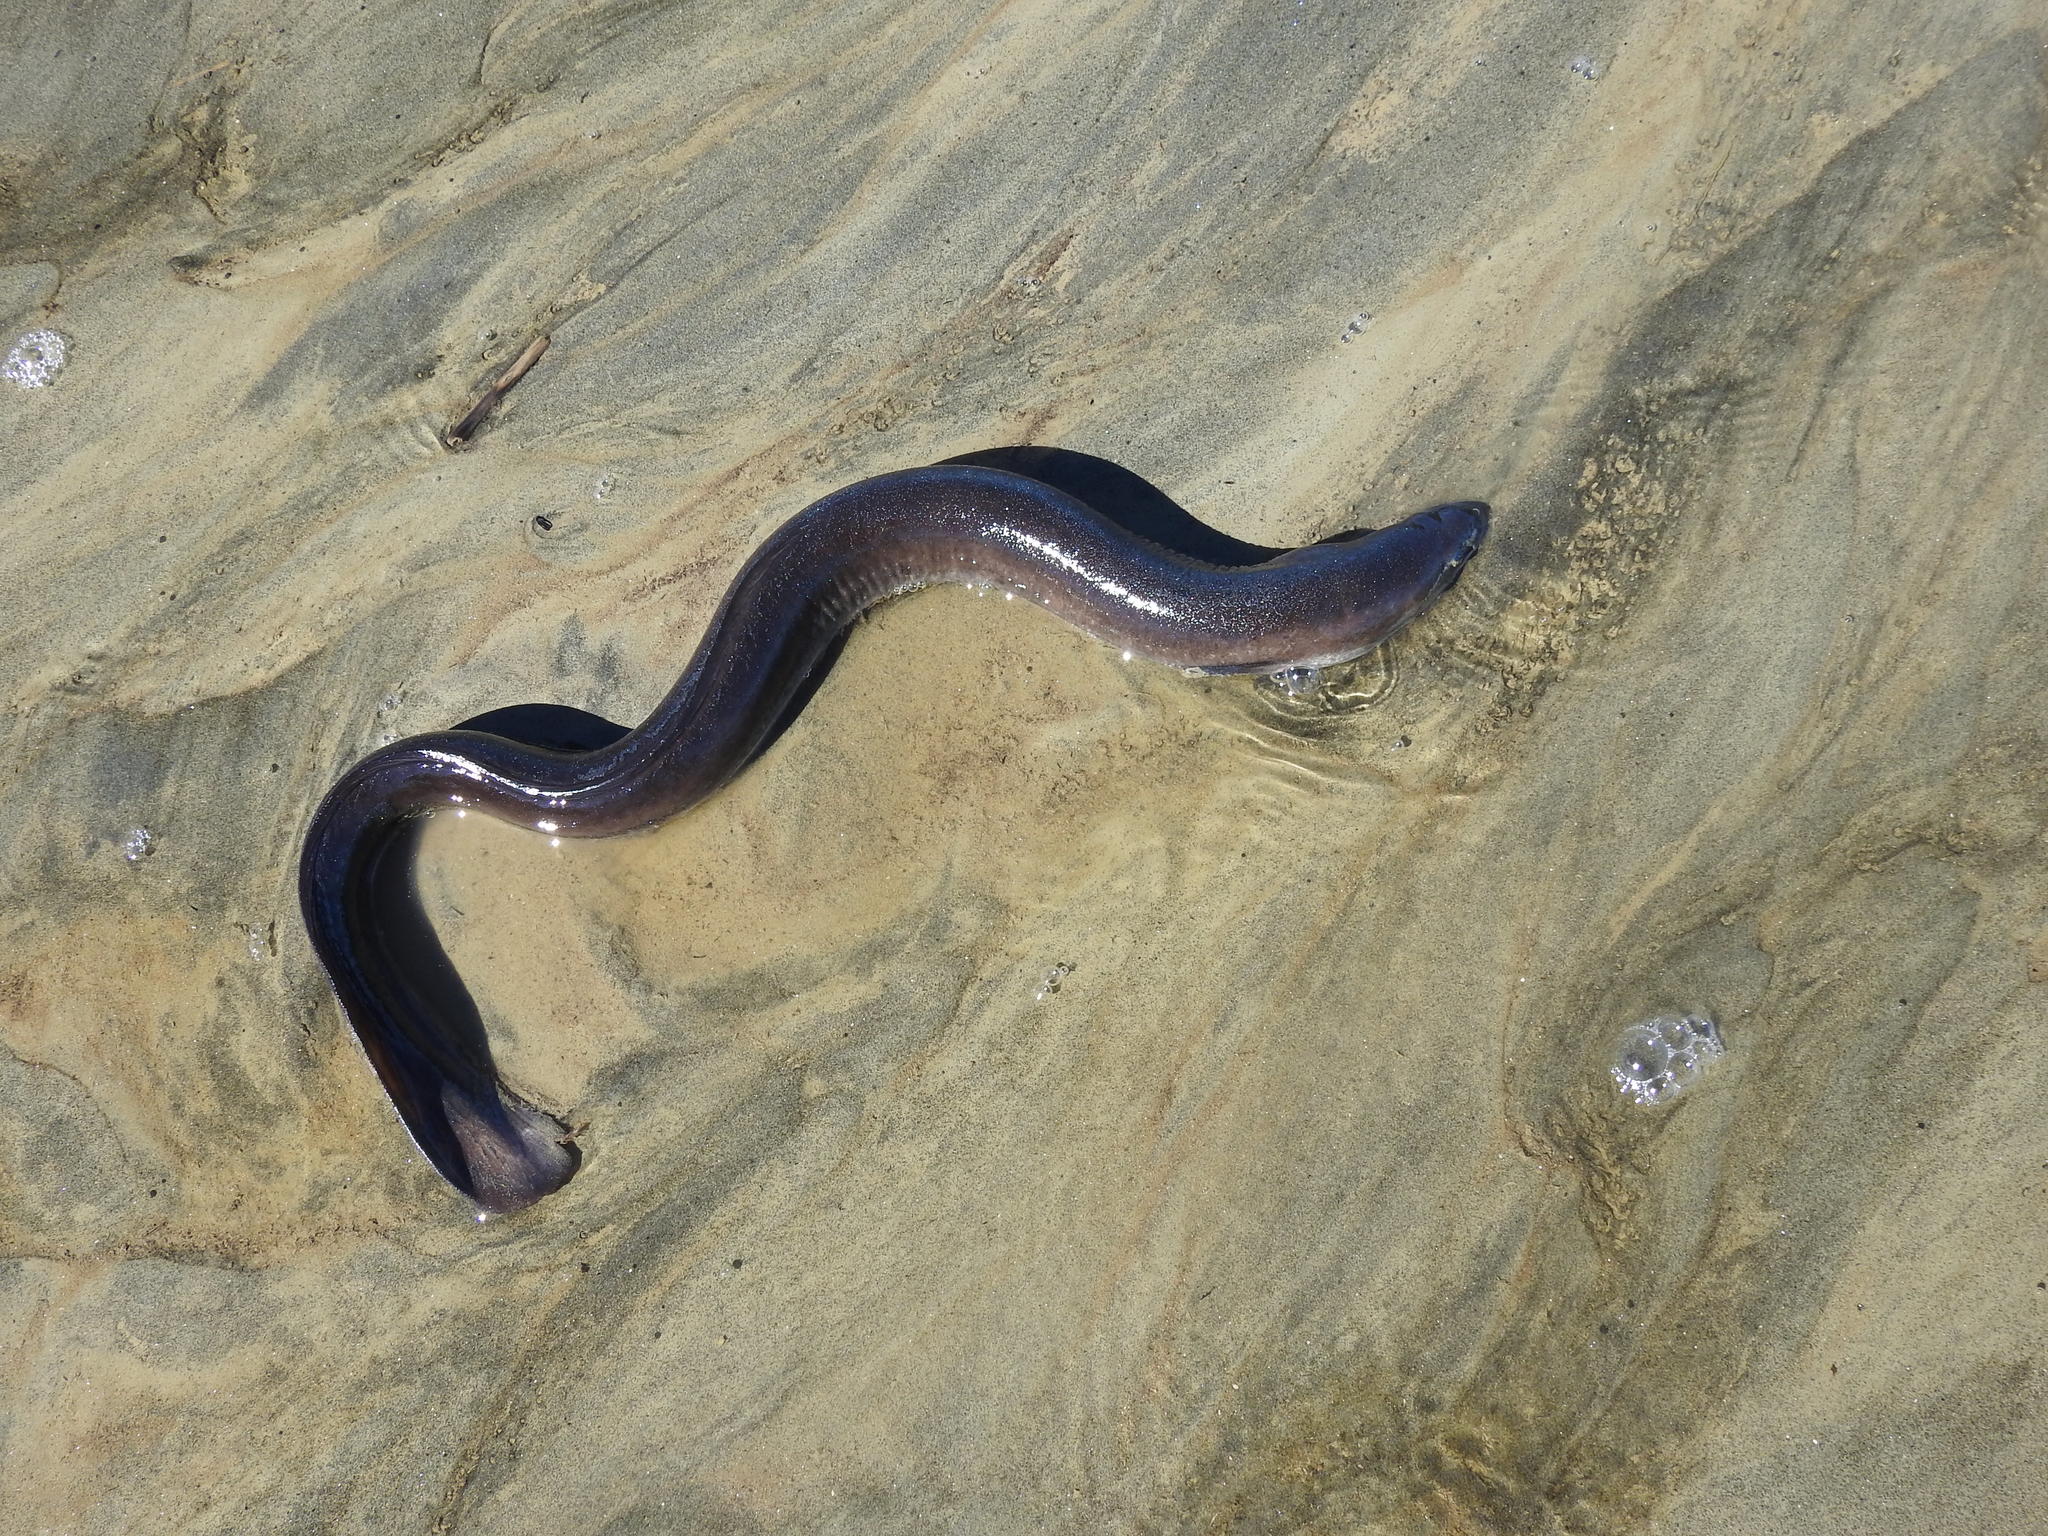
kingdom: Animalia
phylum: Chordata
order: Anguilliformes
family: Anguillidae
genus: Anguilla
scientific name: Anguilla australis
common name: Shortfin eel
